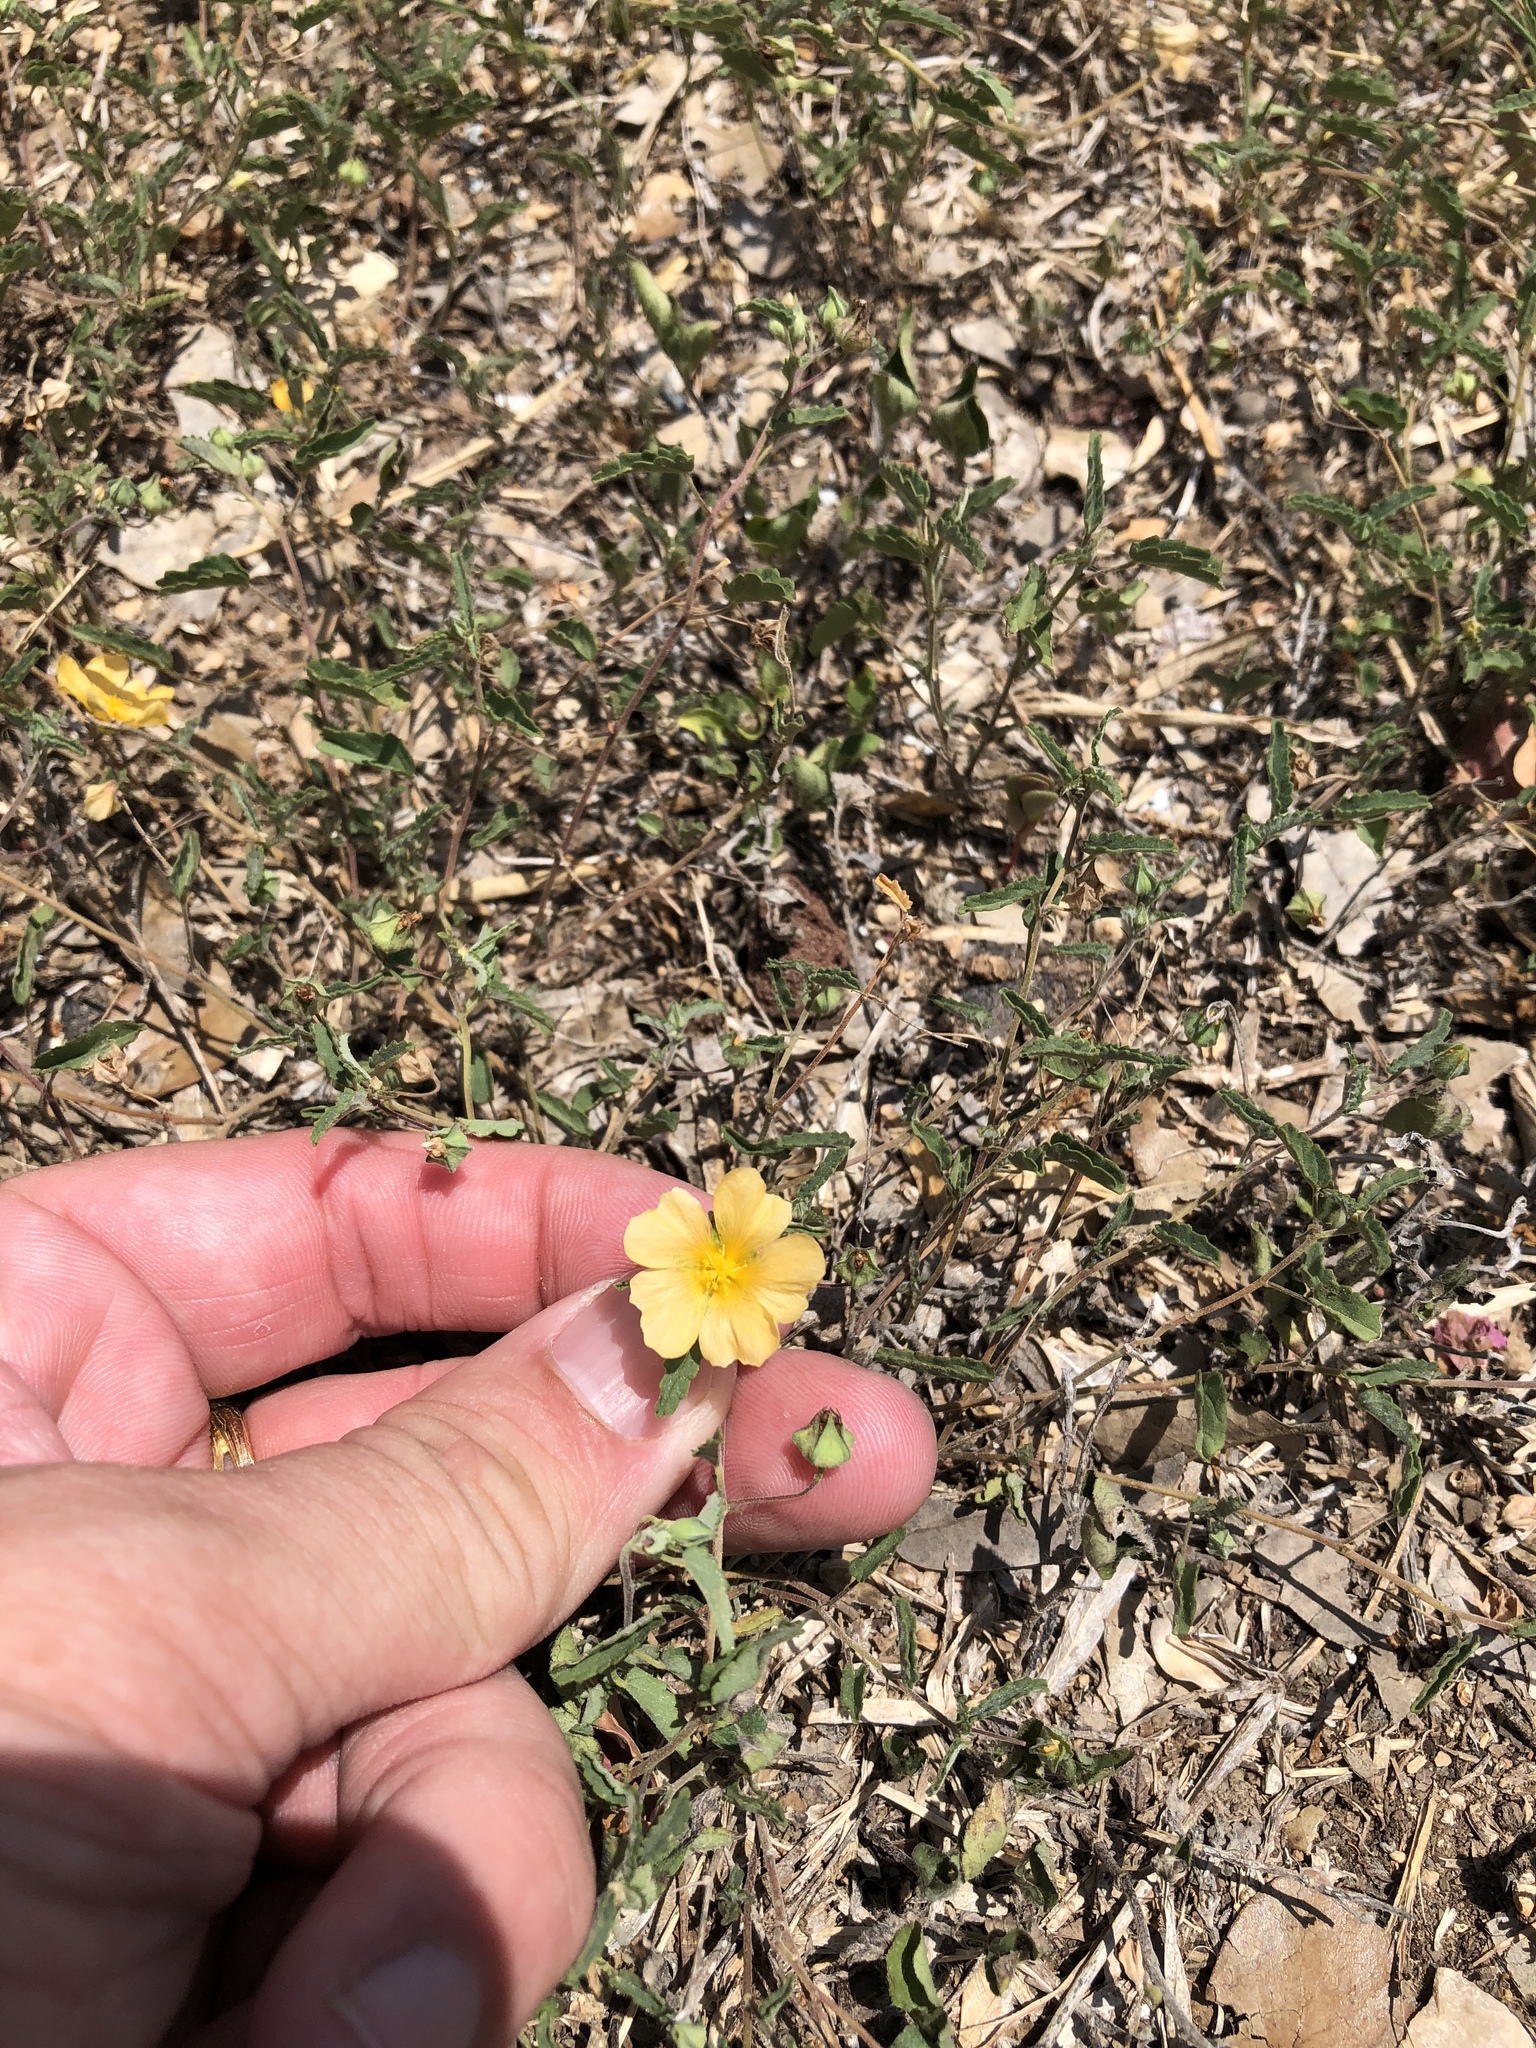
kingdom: Plantae
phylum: Tracheophyta
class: Magnoliopsida
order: Malvales
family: Malvaceae
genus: Sida
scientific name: Sida abutilifolia
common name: Spreading fanpetals
